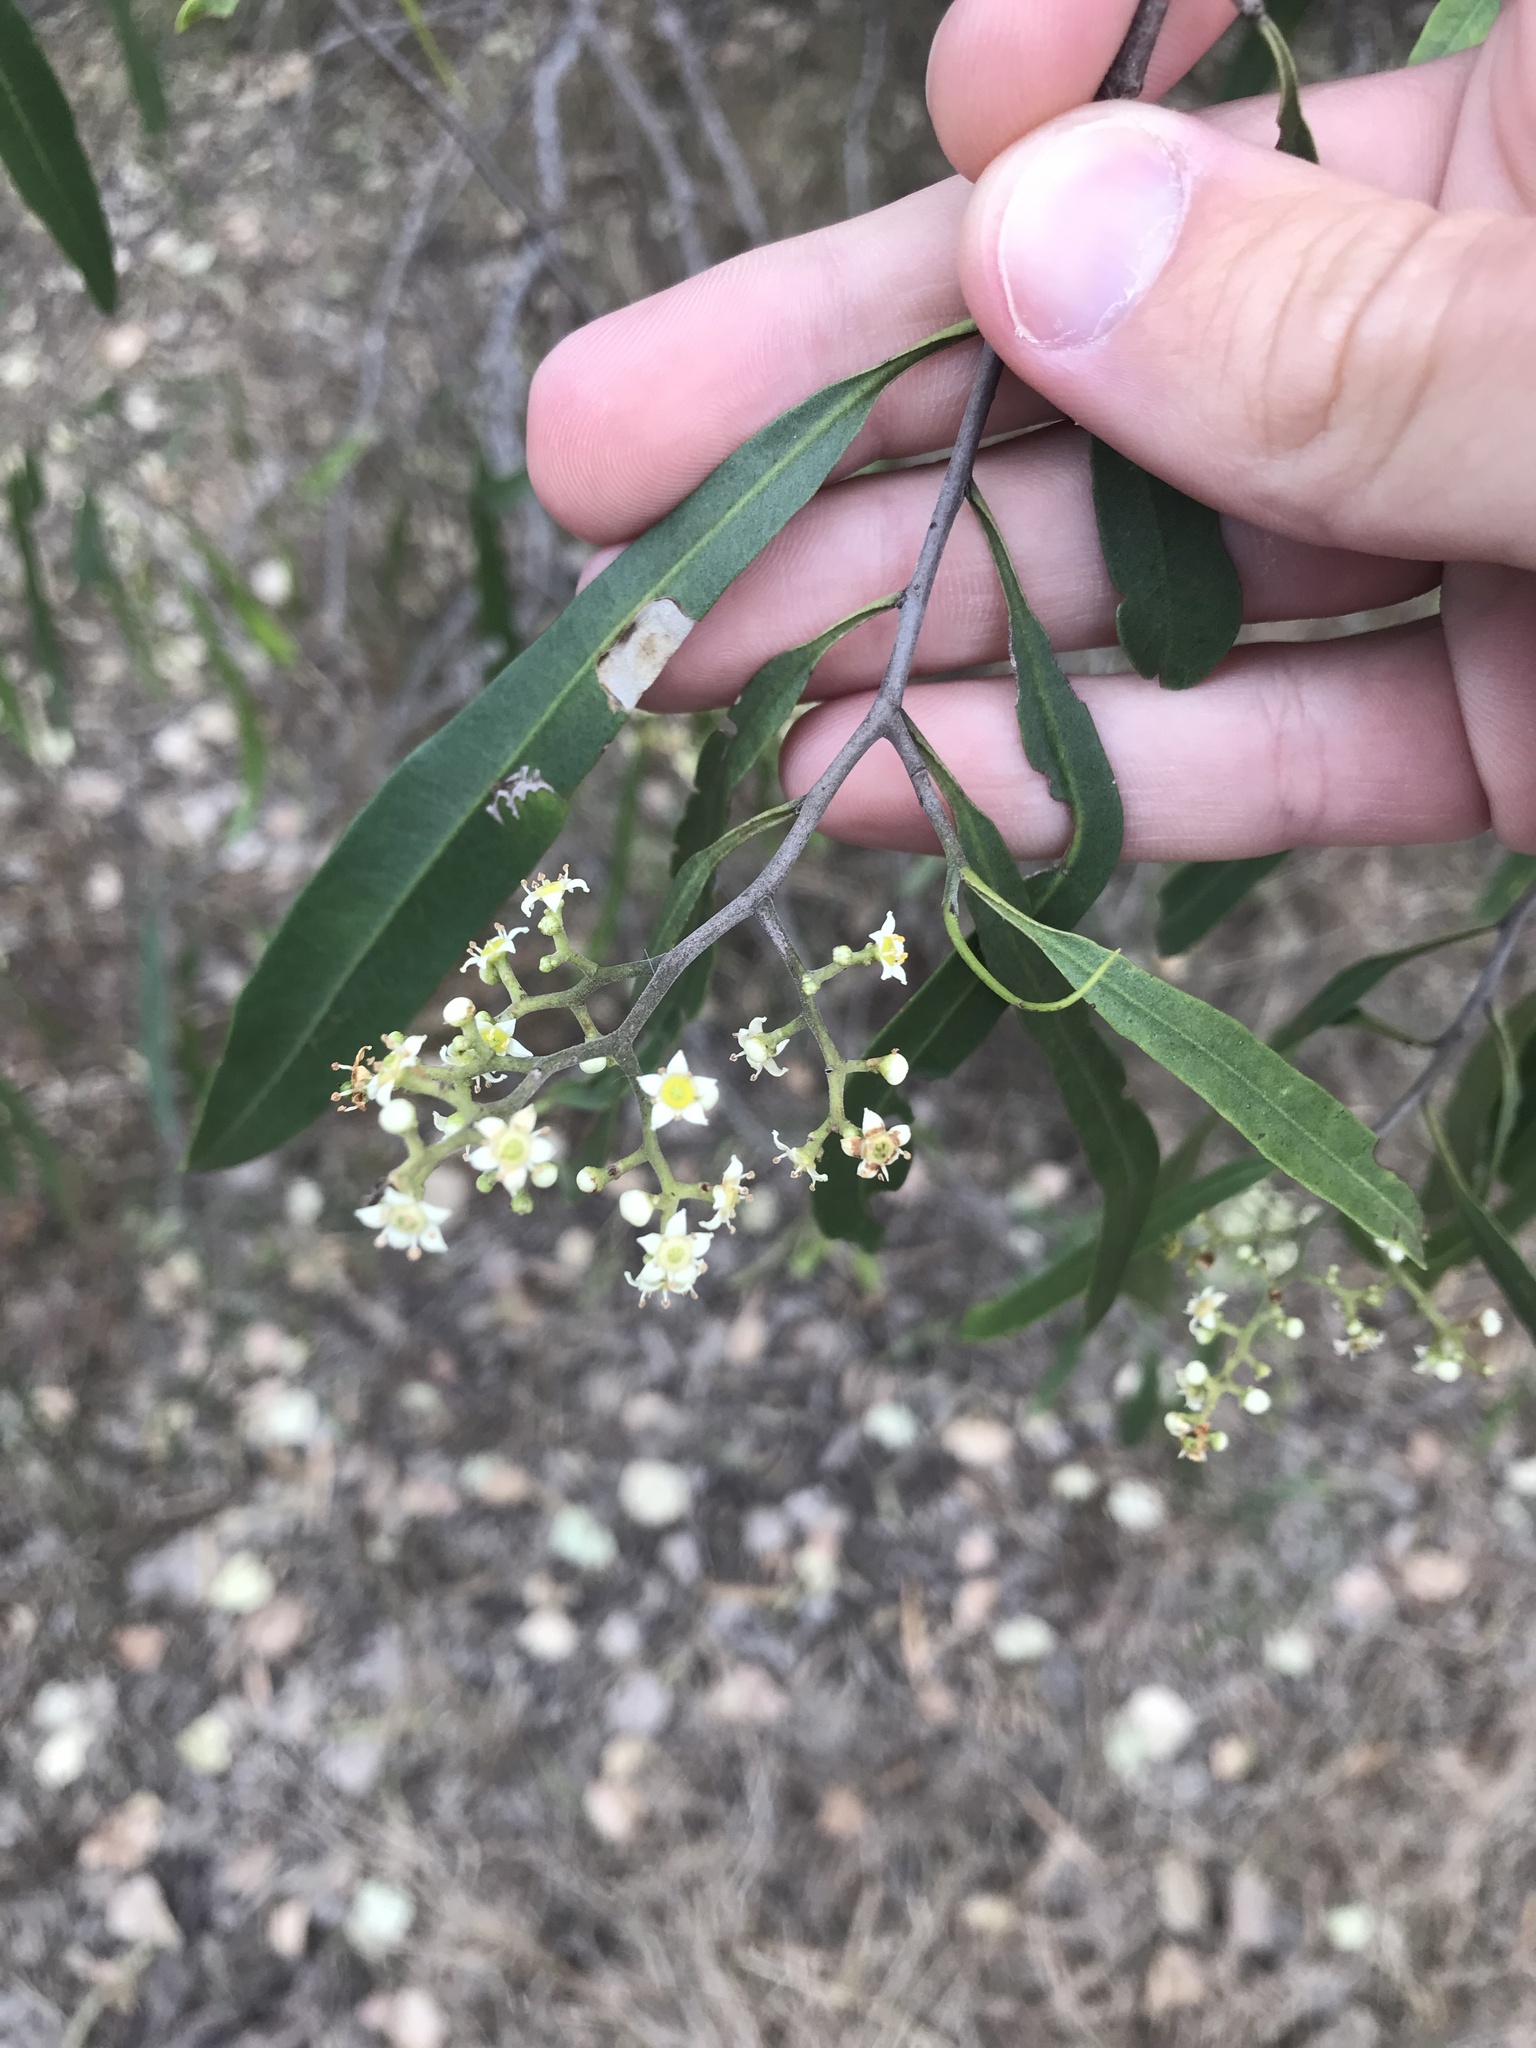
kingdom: Plantae
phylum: Tracheophyta
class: Magnoliopsida
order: Sapindales
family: Rutaceae
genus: Geijera
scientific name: Geijera parviflora
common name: Wilga
